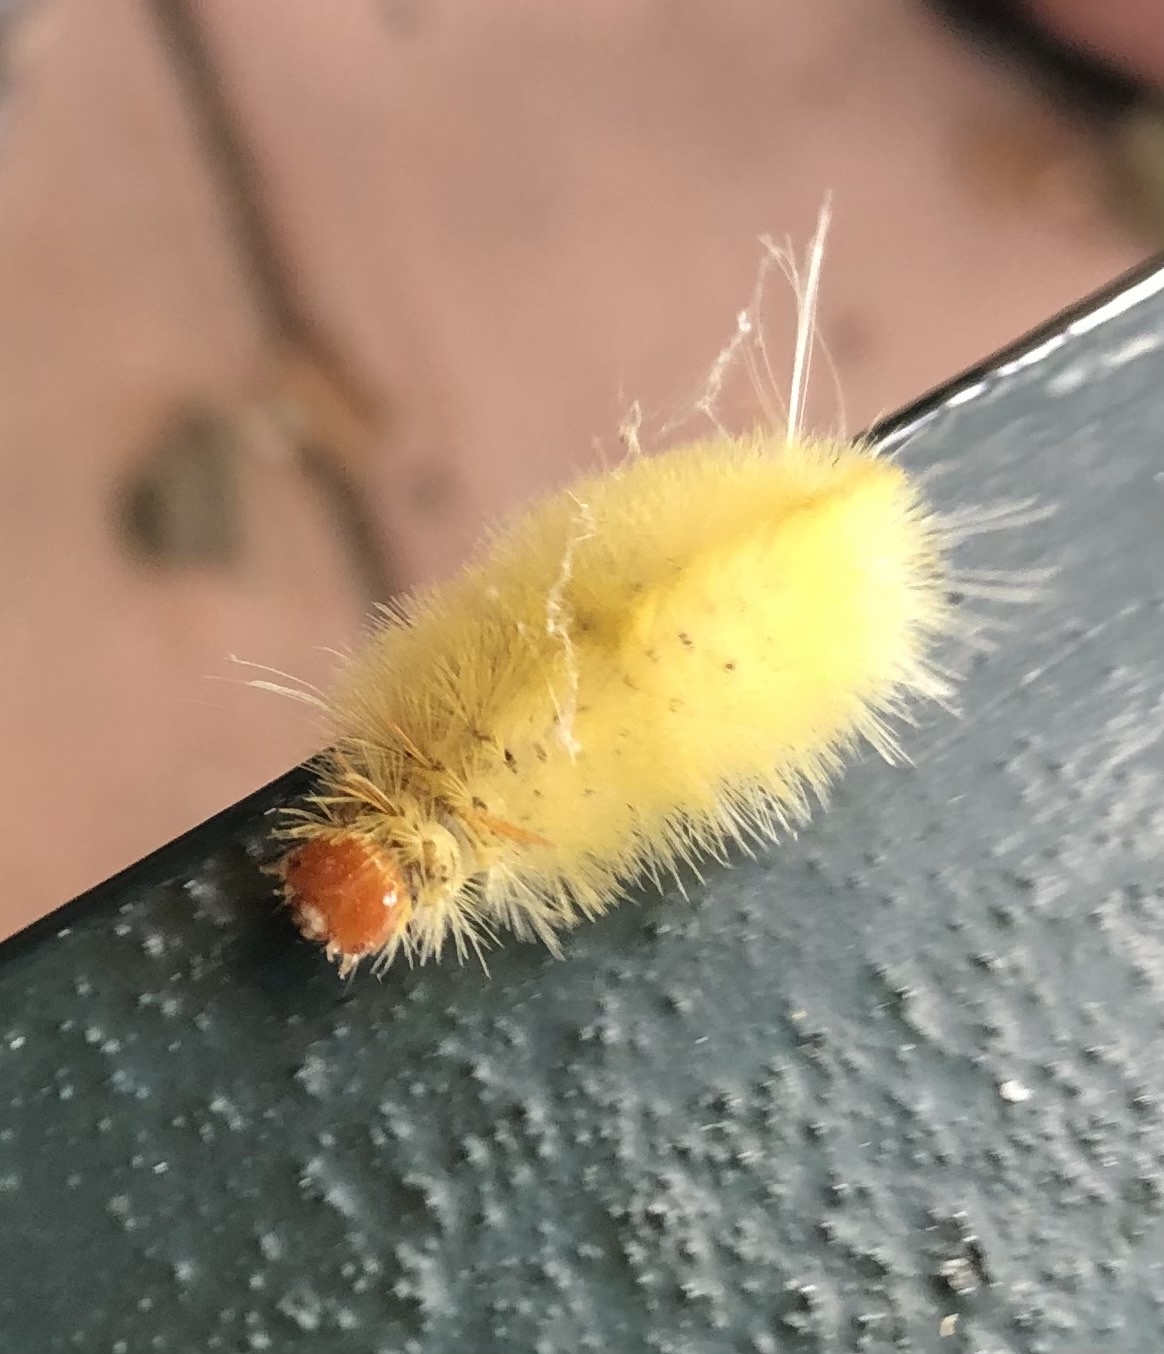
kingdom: Animalia
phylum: Arthropoda
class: Insecta
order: Lepidoptera
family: Erebidae
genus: Halysidota
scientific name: Halysidota harrisii
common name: Sycamore tussock moth
